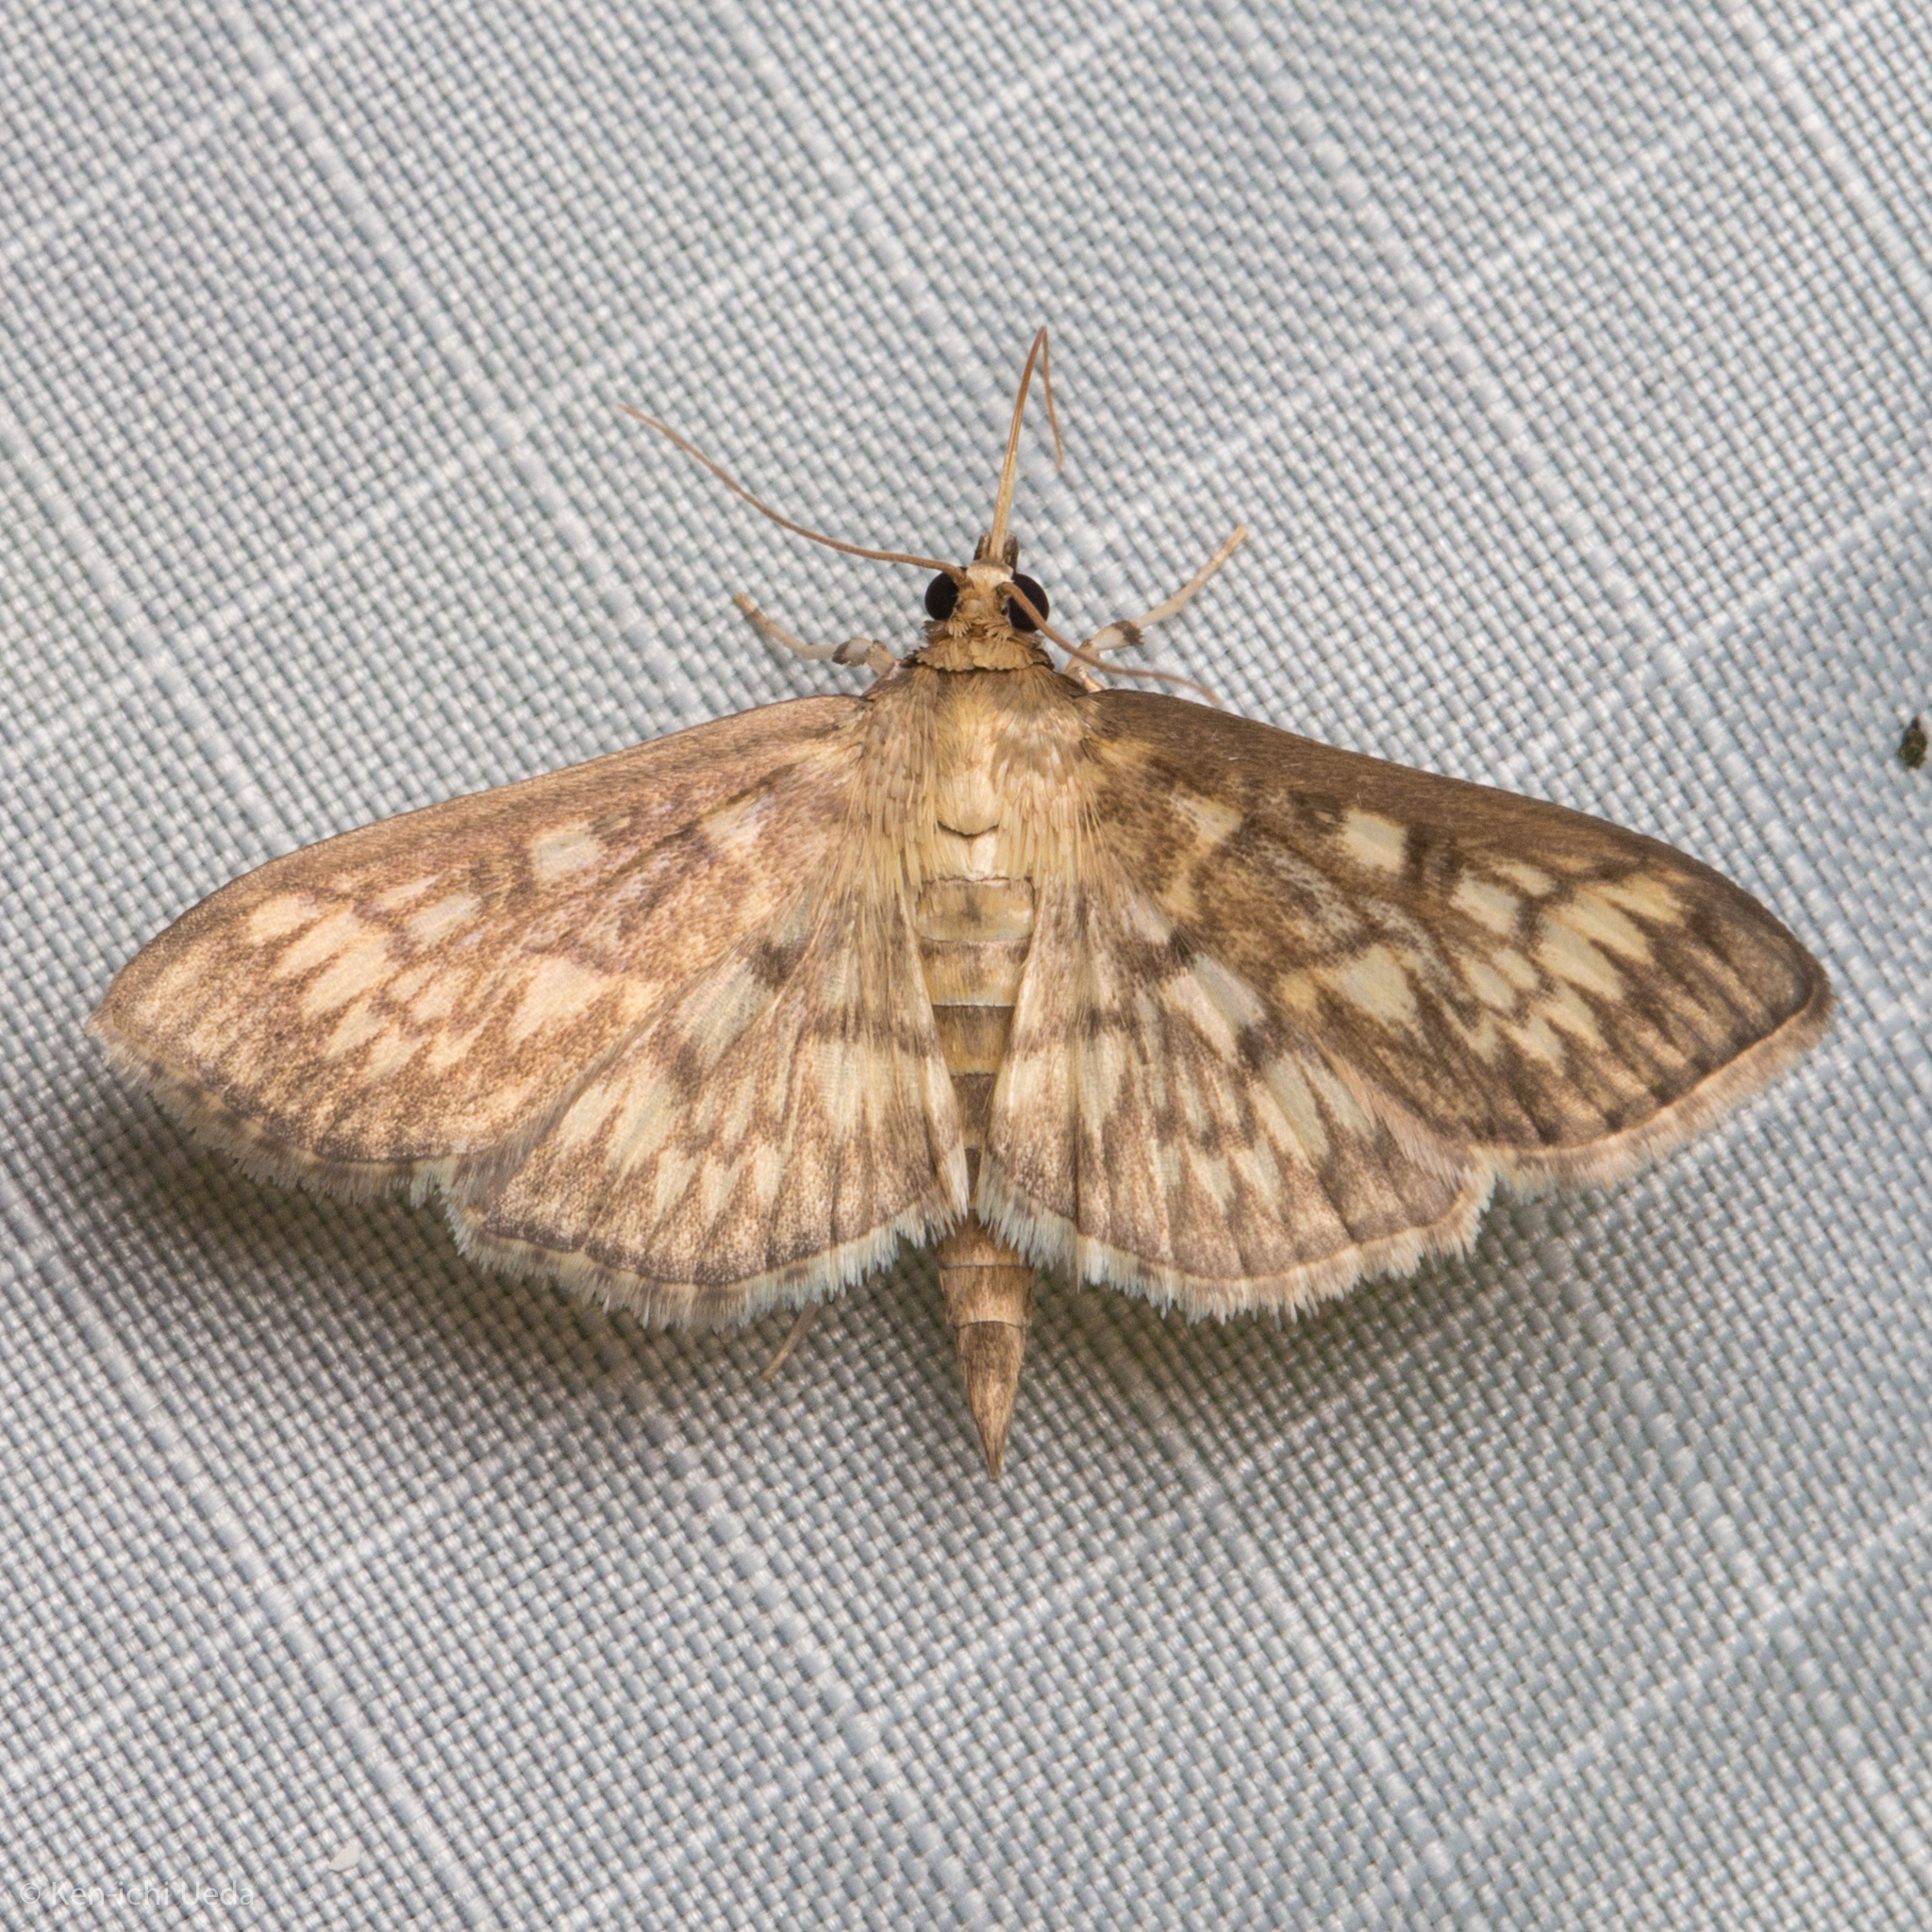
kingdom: Animalia
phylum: Arthropoda
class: Insecta
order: Lepidoptera
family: Crambidae
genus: Herpetogramma
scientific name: Herpetogramma pertextalis
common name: Bold-feathered grass moth
